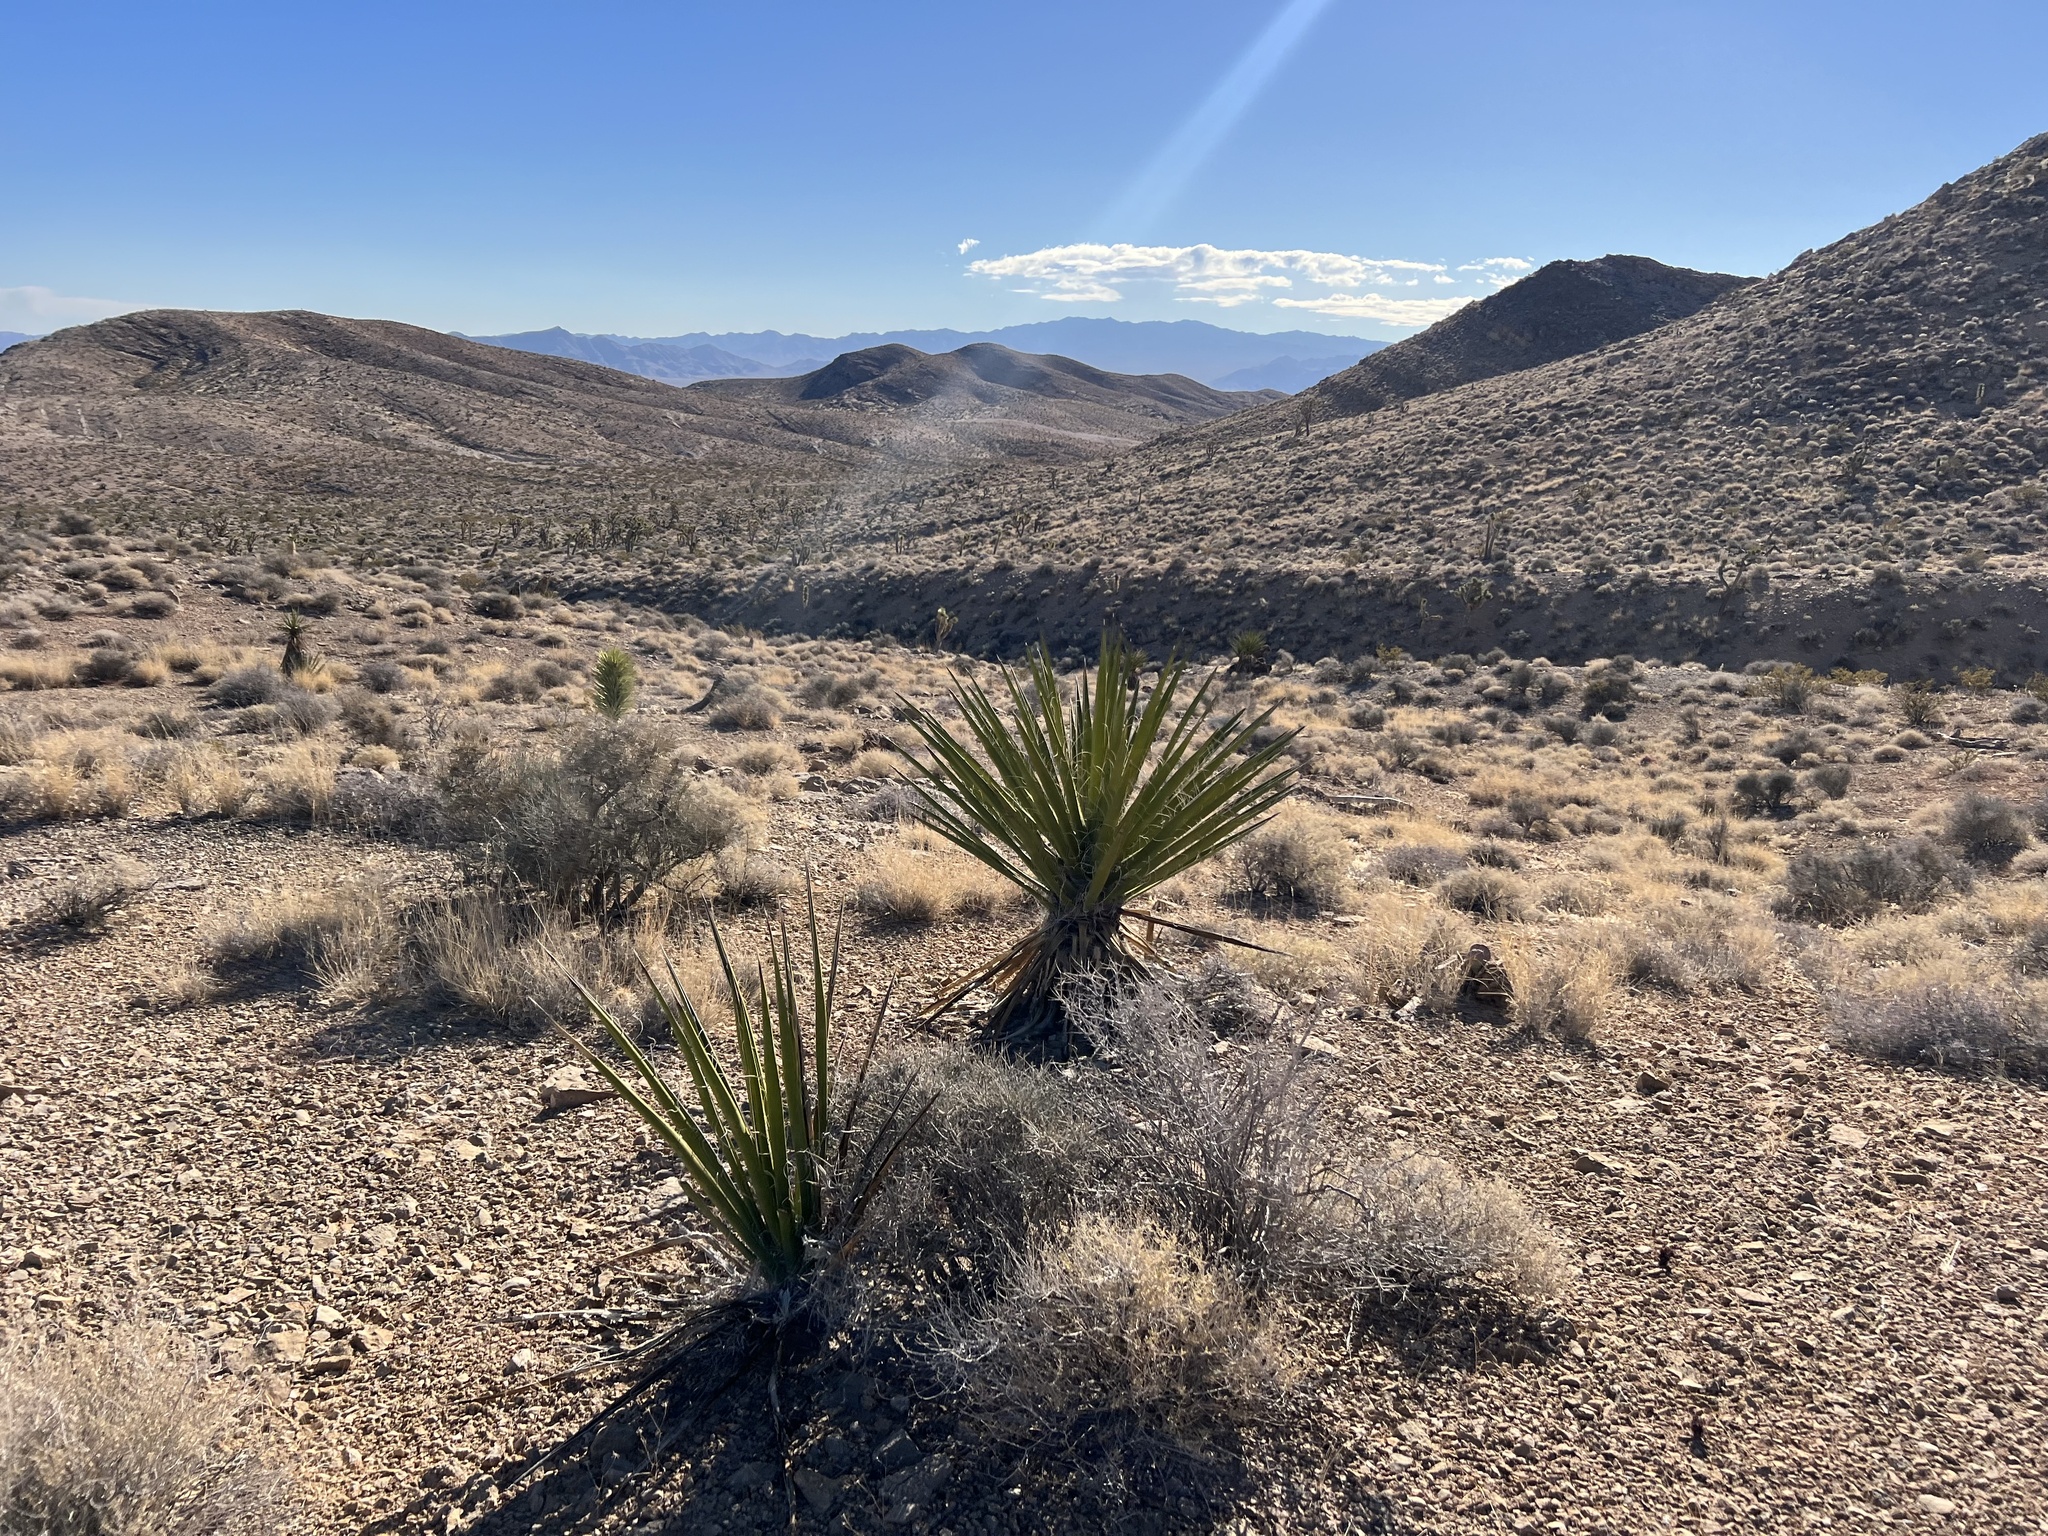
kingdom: Plantae
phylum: Tracheophyta
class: Liliopsida
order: Asparagales
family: Asparagaceae
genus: Yucca
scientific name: Yucca schidigera
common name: Mojave yucca
